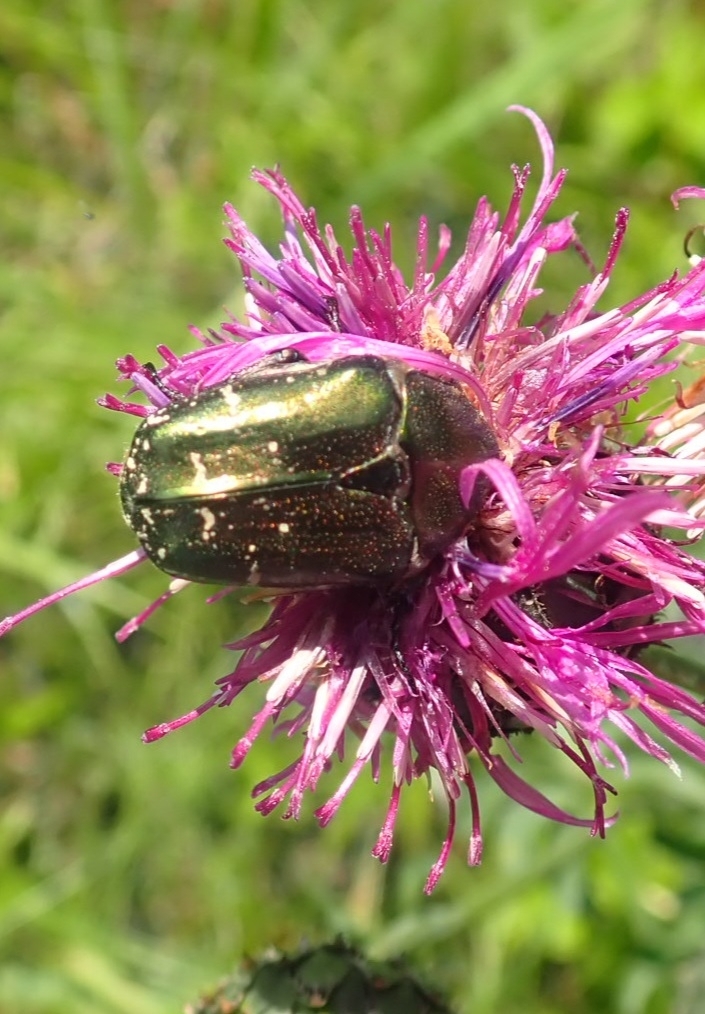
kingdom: Animalia
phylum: Arthropoda
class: Insecta
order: Coleoptera
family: Scarabaeidae
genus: Protaetia
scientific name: Protaetia cuprea
